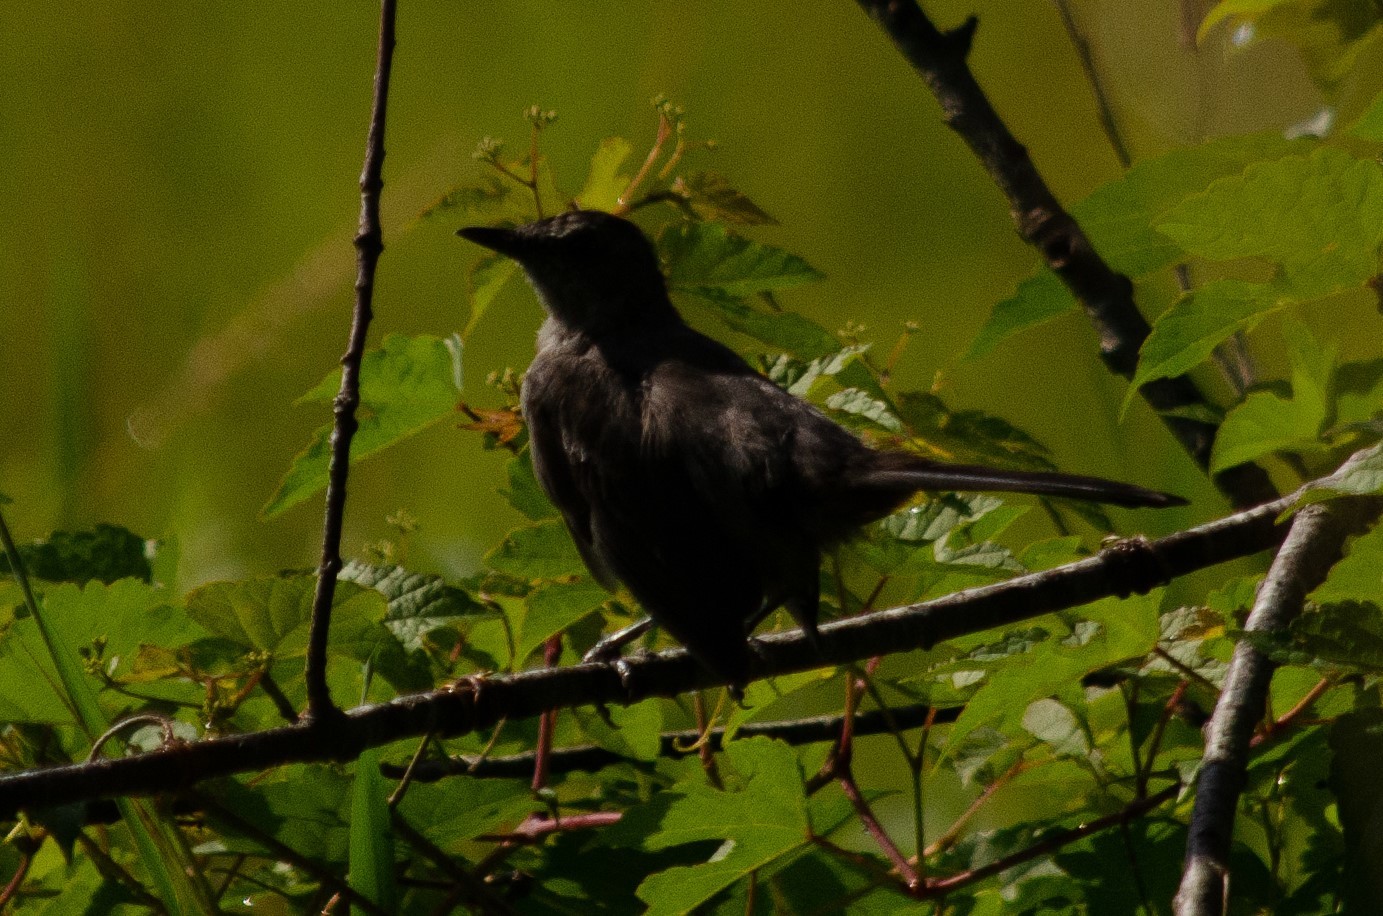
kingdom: Animalia
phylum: Chordata
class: Aves
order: Passeriformes
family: Mimidae
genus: Dumetella
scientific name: Dumetella carolinensis
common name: Gray catbird
